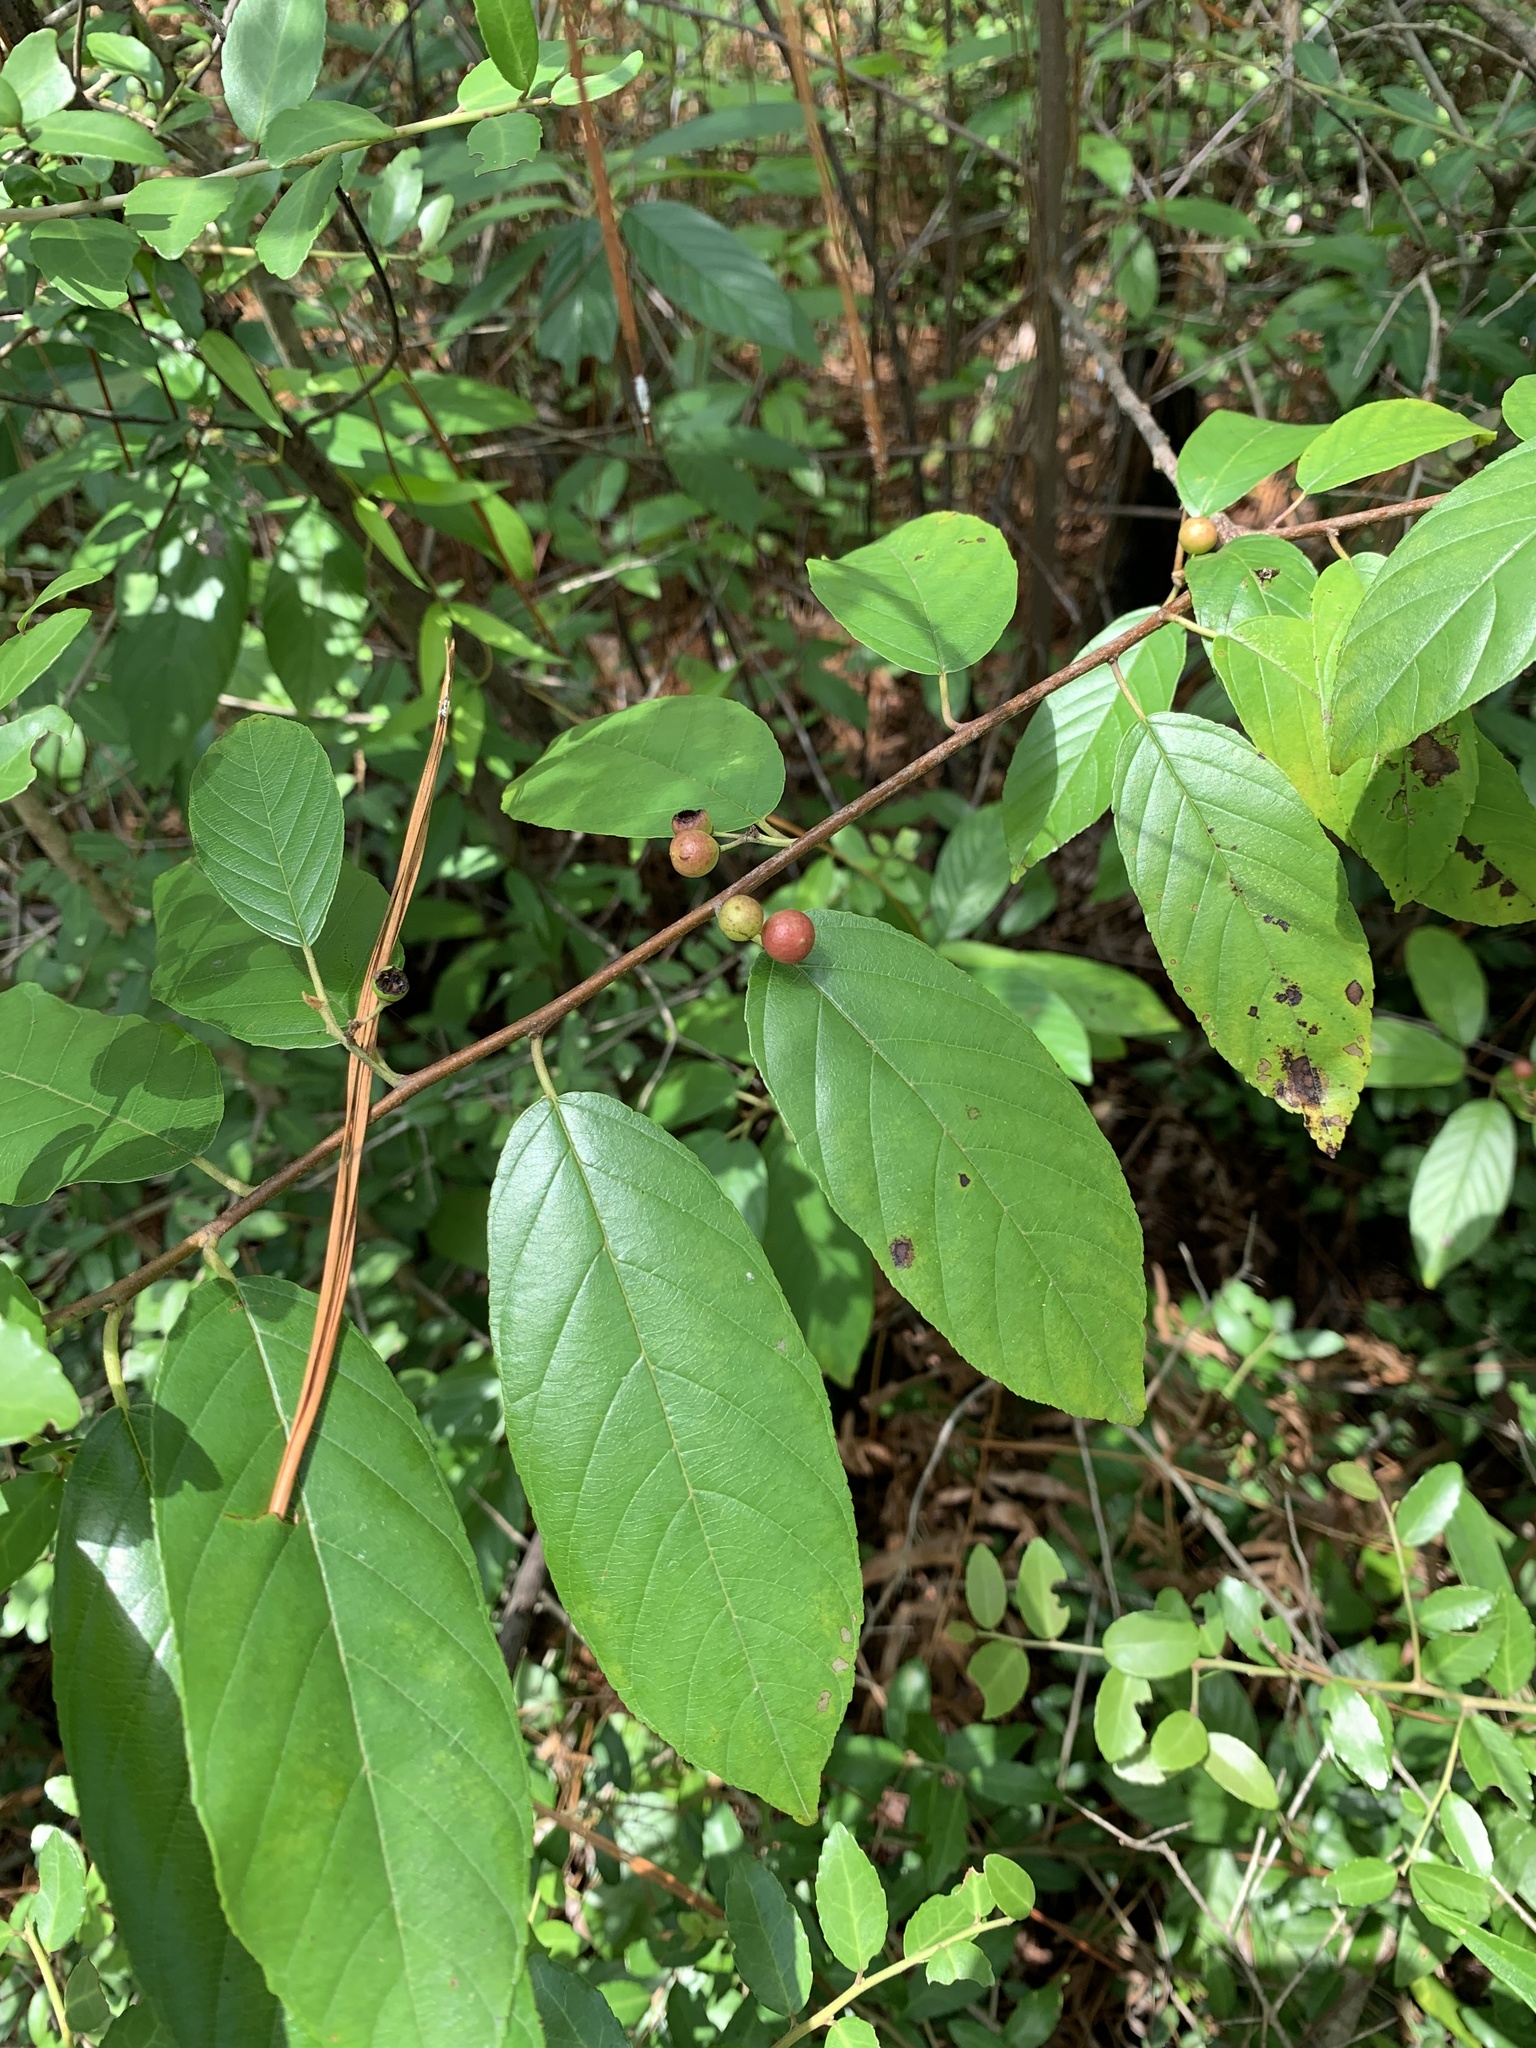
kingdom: Plantae
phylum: Tracheophyta
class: Magnoliopsida
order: Rosales
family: Rhamnaceae
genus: Frangula
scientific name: Frangula caroliniana
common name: Carolina buckthorn
